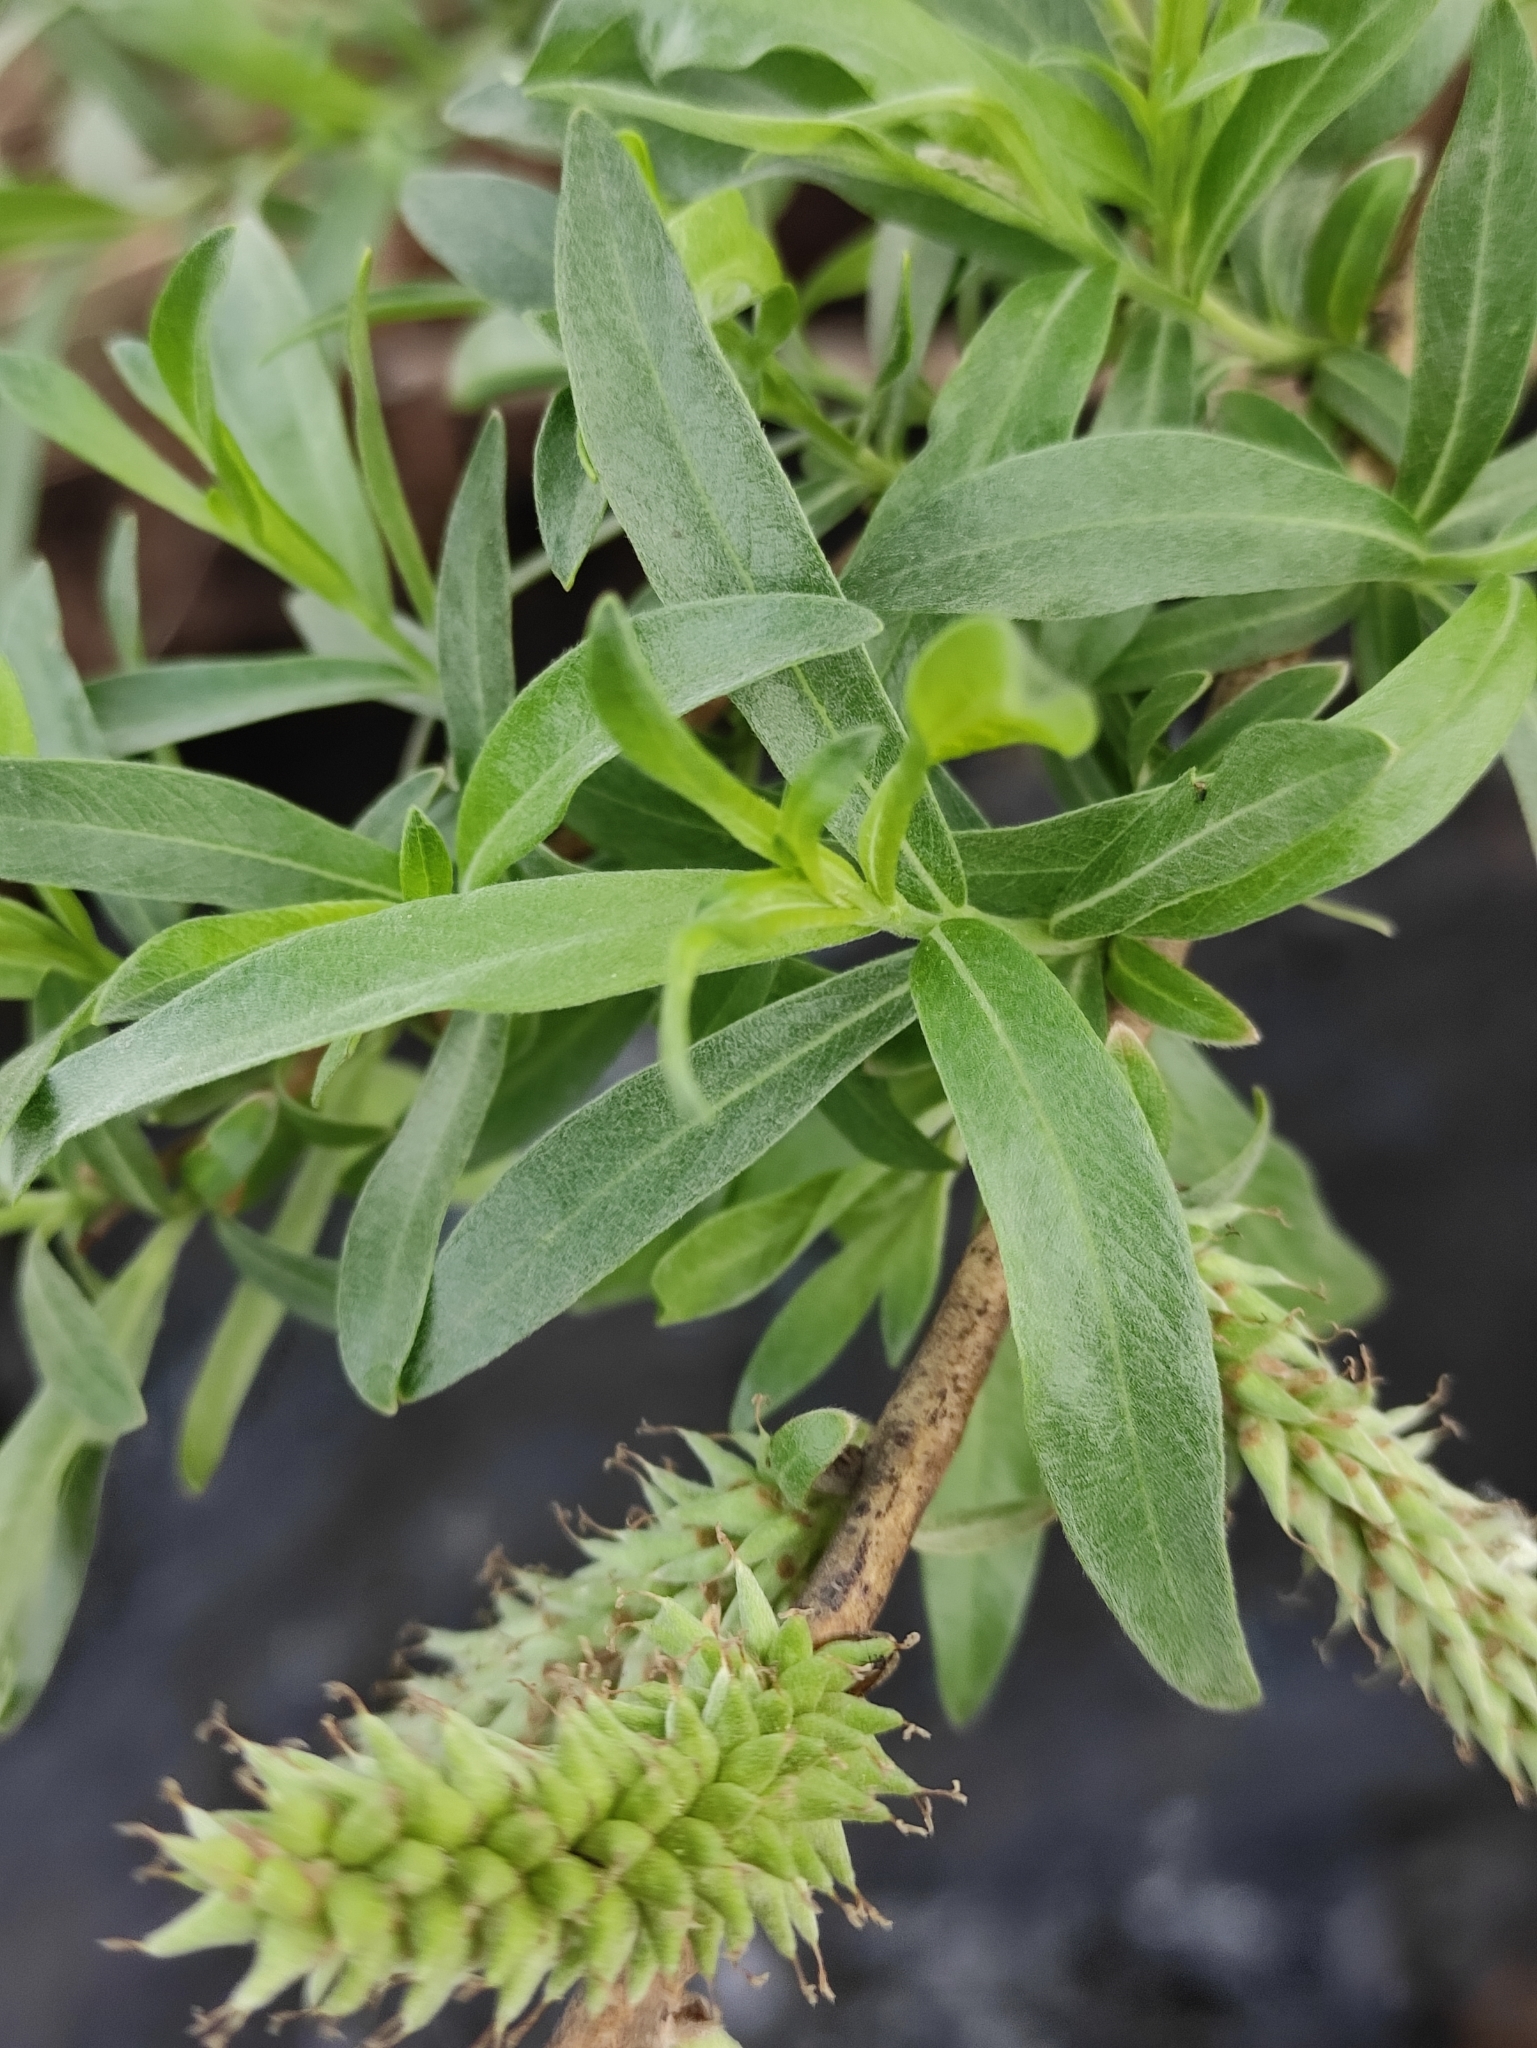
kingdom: Plantae
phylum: Tracheophyta
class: Magnoliopsida
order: Malpighiales
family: Salicaceae
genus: Salix
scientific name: Salix viminalis
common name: Osier
